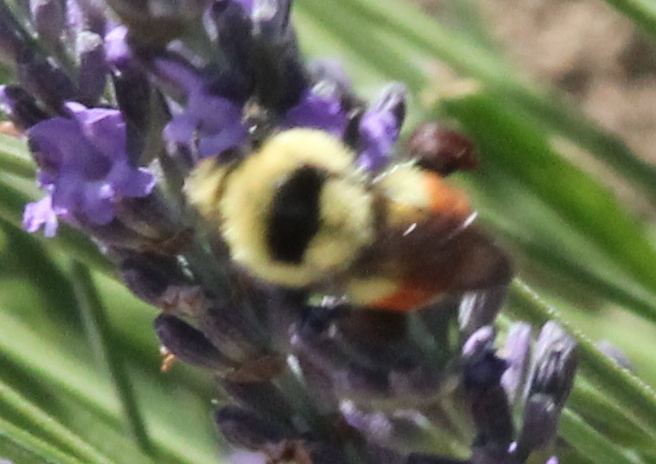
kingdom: Animalia
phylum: Arthropoda
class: Insecta
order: Hymenoptera
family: Apidae
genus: Bombus
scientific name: Bombus huntii
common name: Hunt bumble bee
